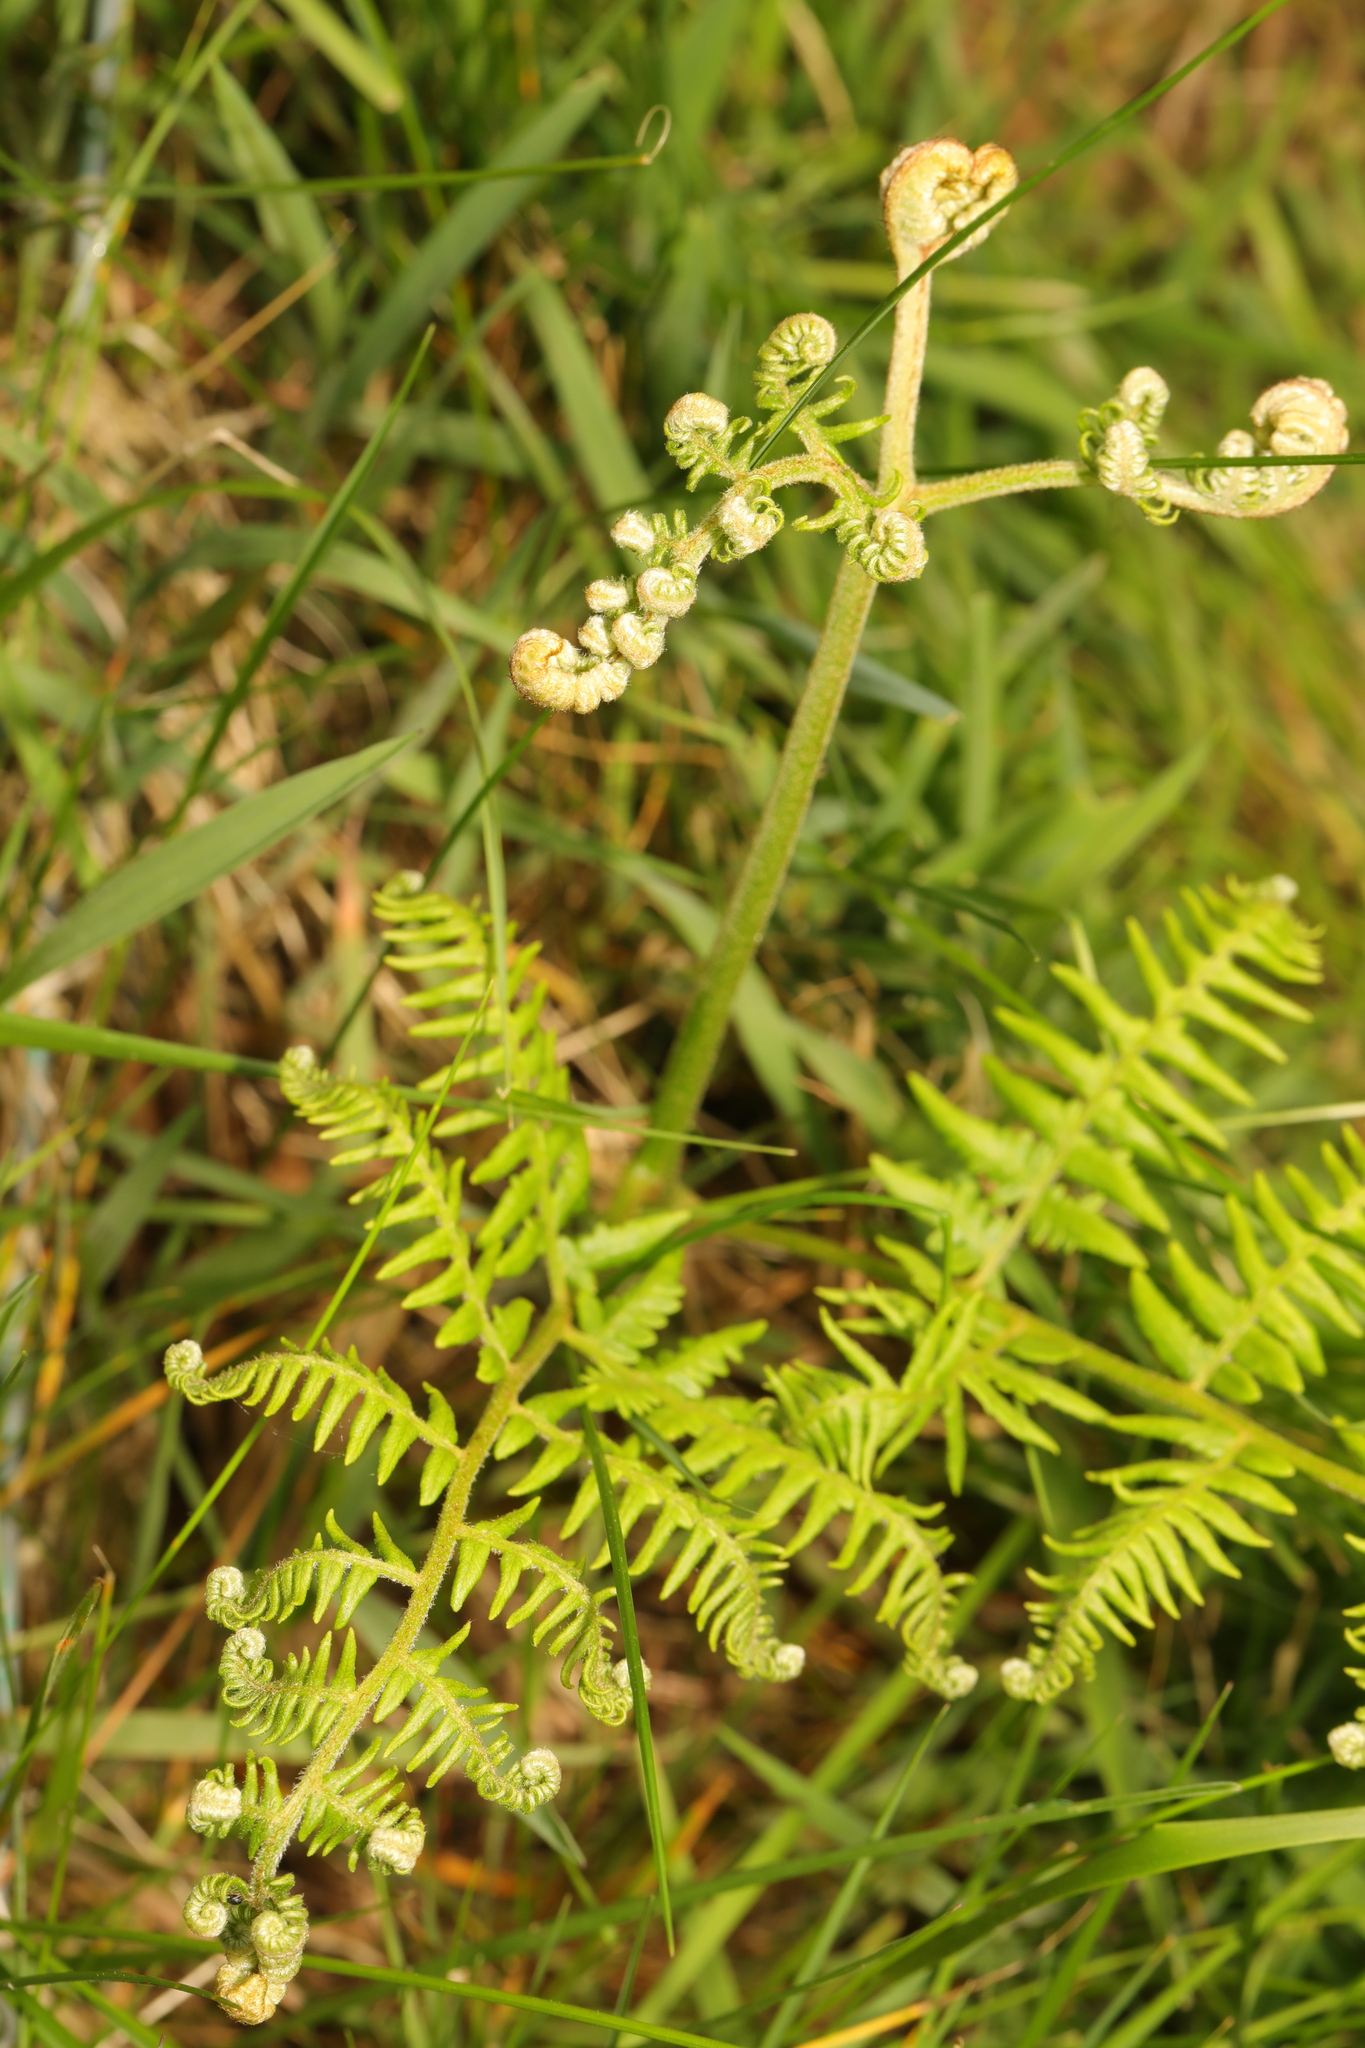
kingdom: Plantae
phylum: Tracheophyta
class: Polypodiopsida
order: Polypodiales
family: Dennstaedtiaceae
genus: Pteridium
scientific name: Pteridium aquilinum
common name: Bracken
